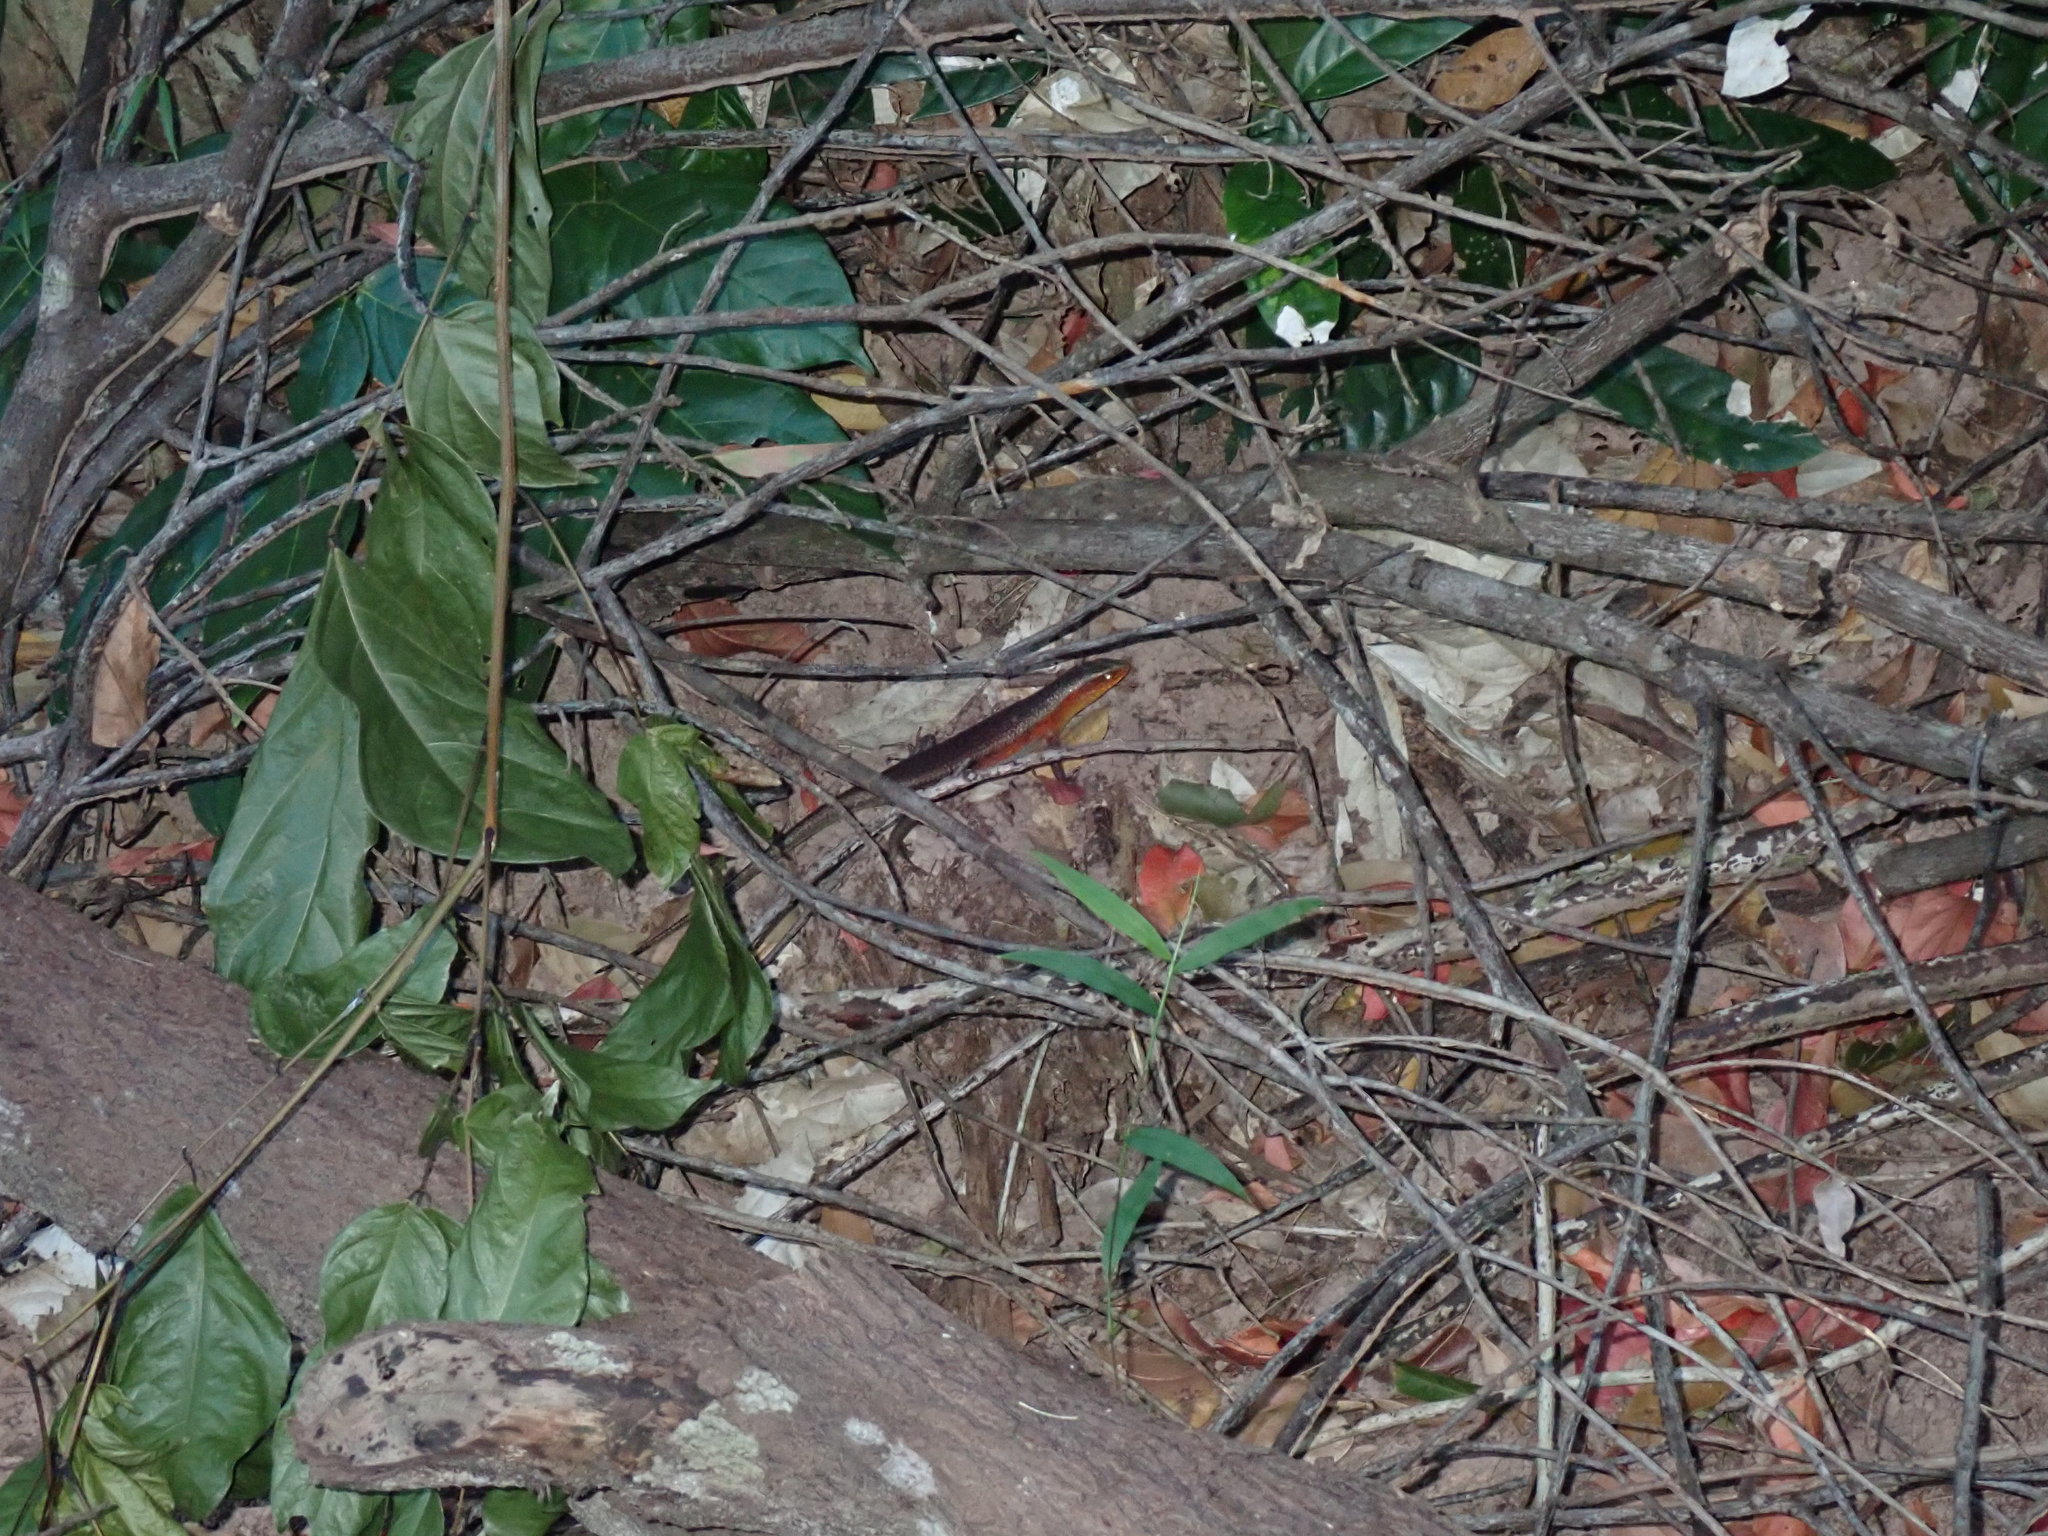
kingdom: Animalia
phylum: Chordata
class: Squamata
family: Scincidae
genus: Eutropis
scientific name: Eutropis multifasciata
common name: Common mabuya
